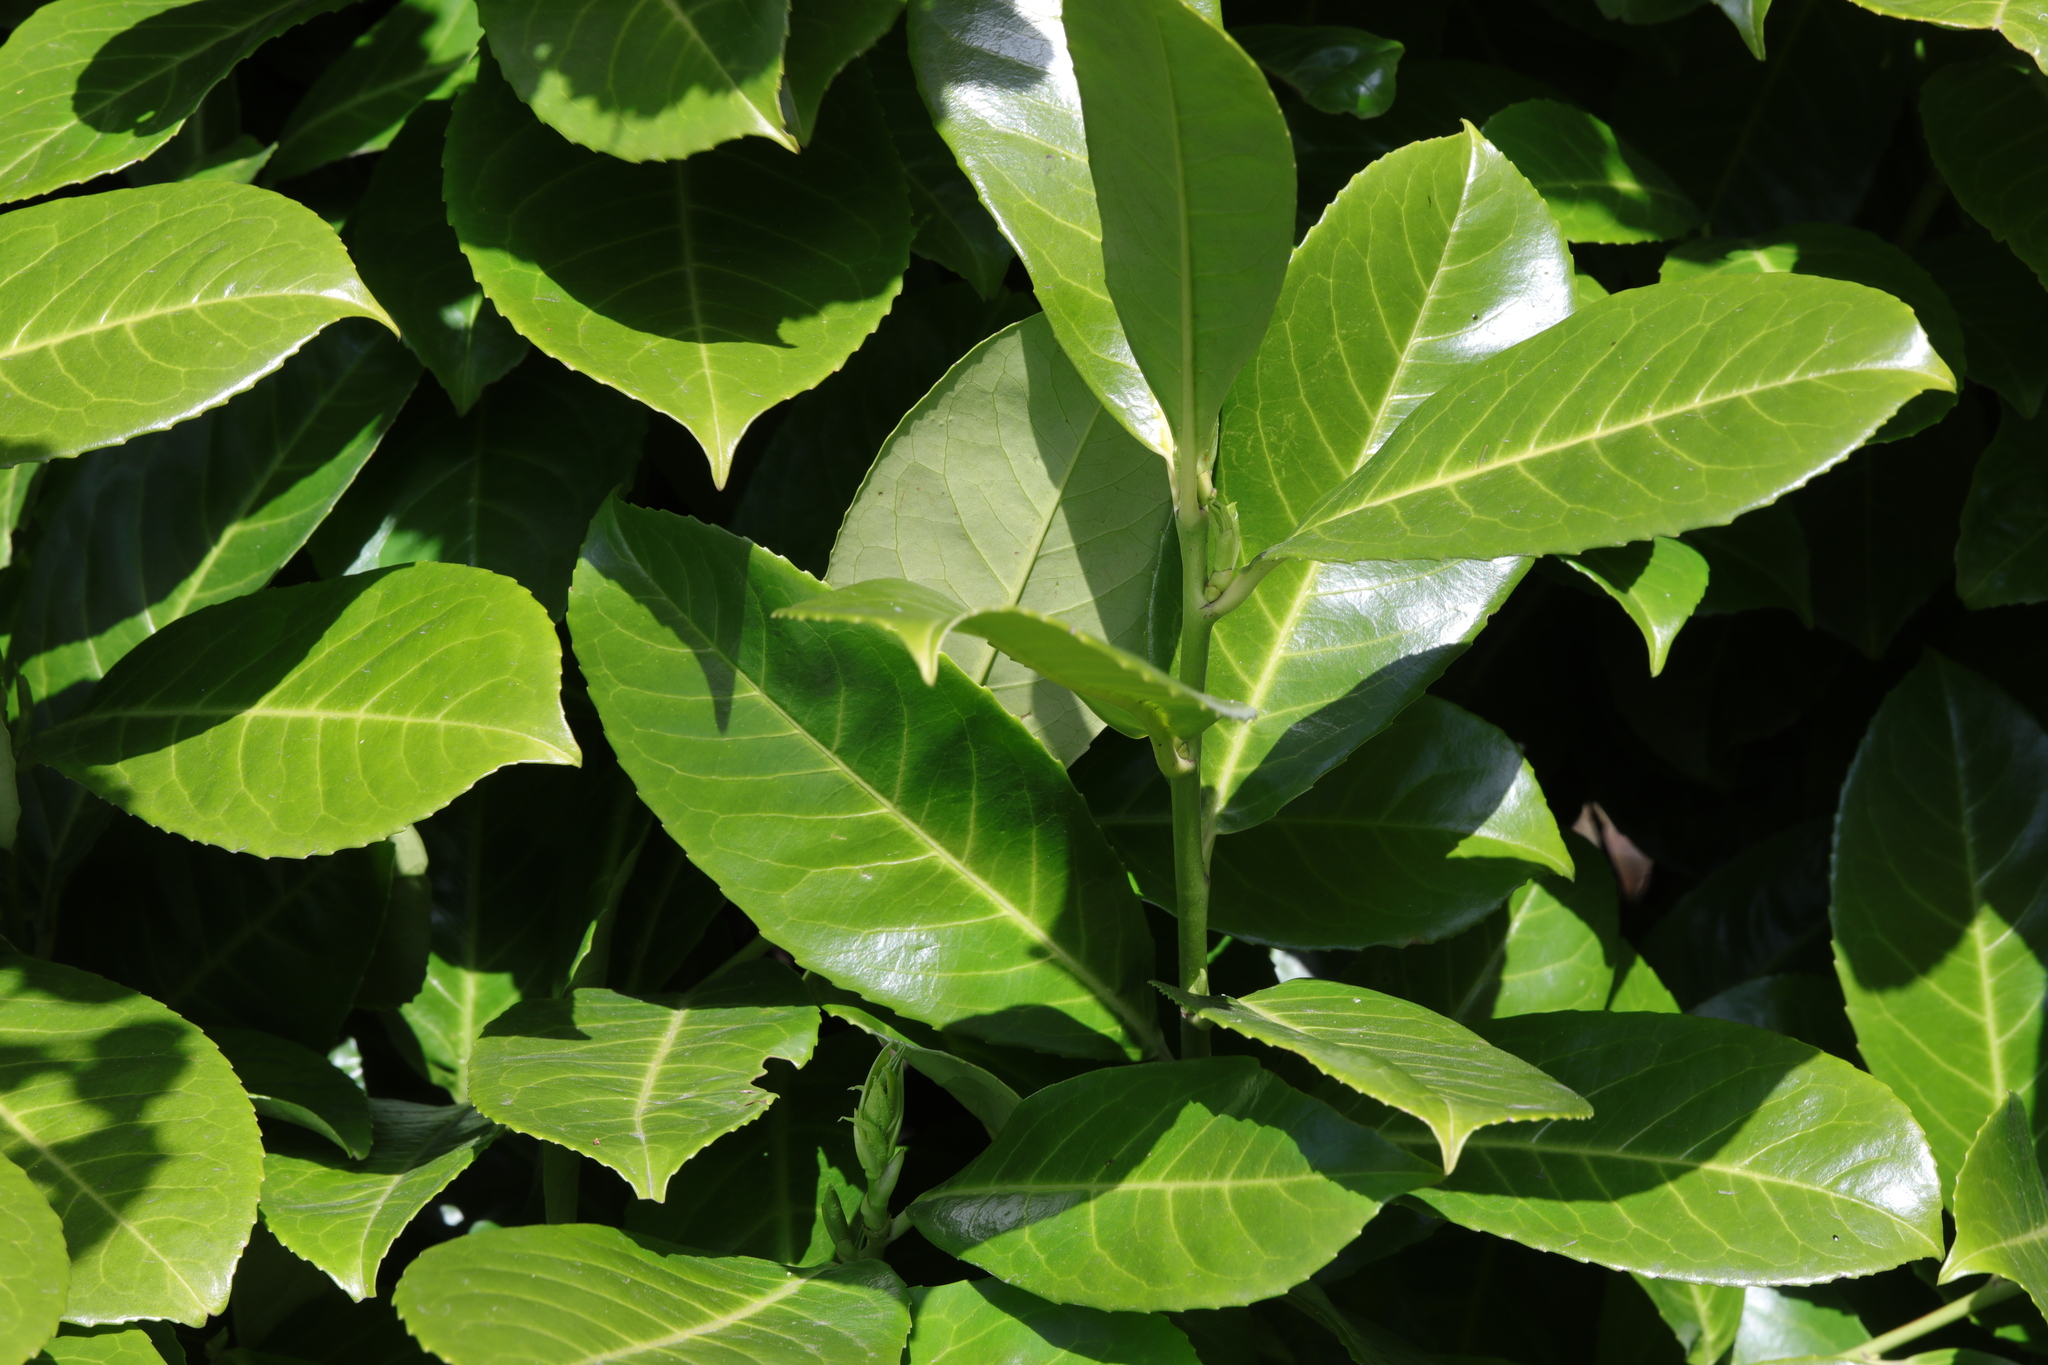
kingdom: Plantae
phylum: Tracheophyta
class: Magnoliopsida
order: Rosales
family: Rosaceae
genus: Prunus
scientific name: Prunus laurocerasus
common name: Cherry laurel
